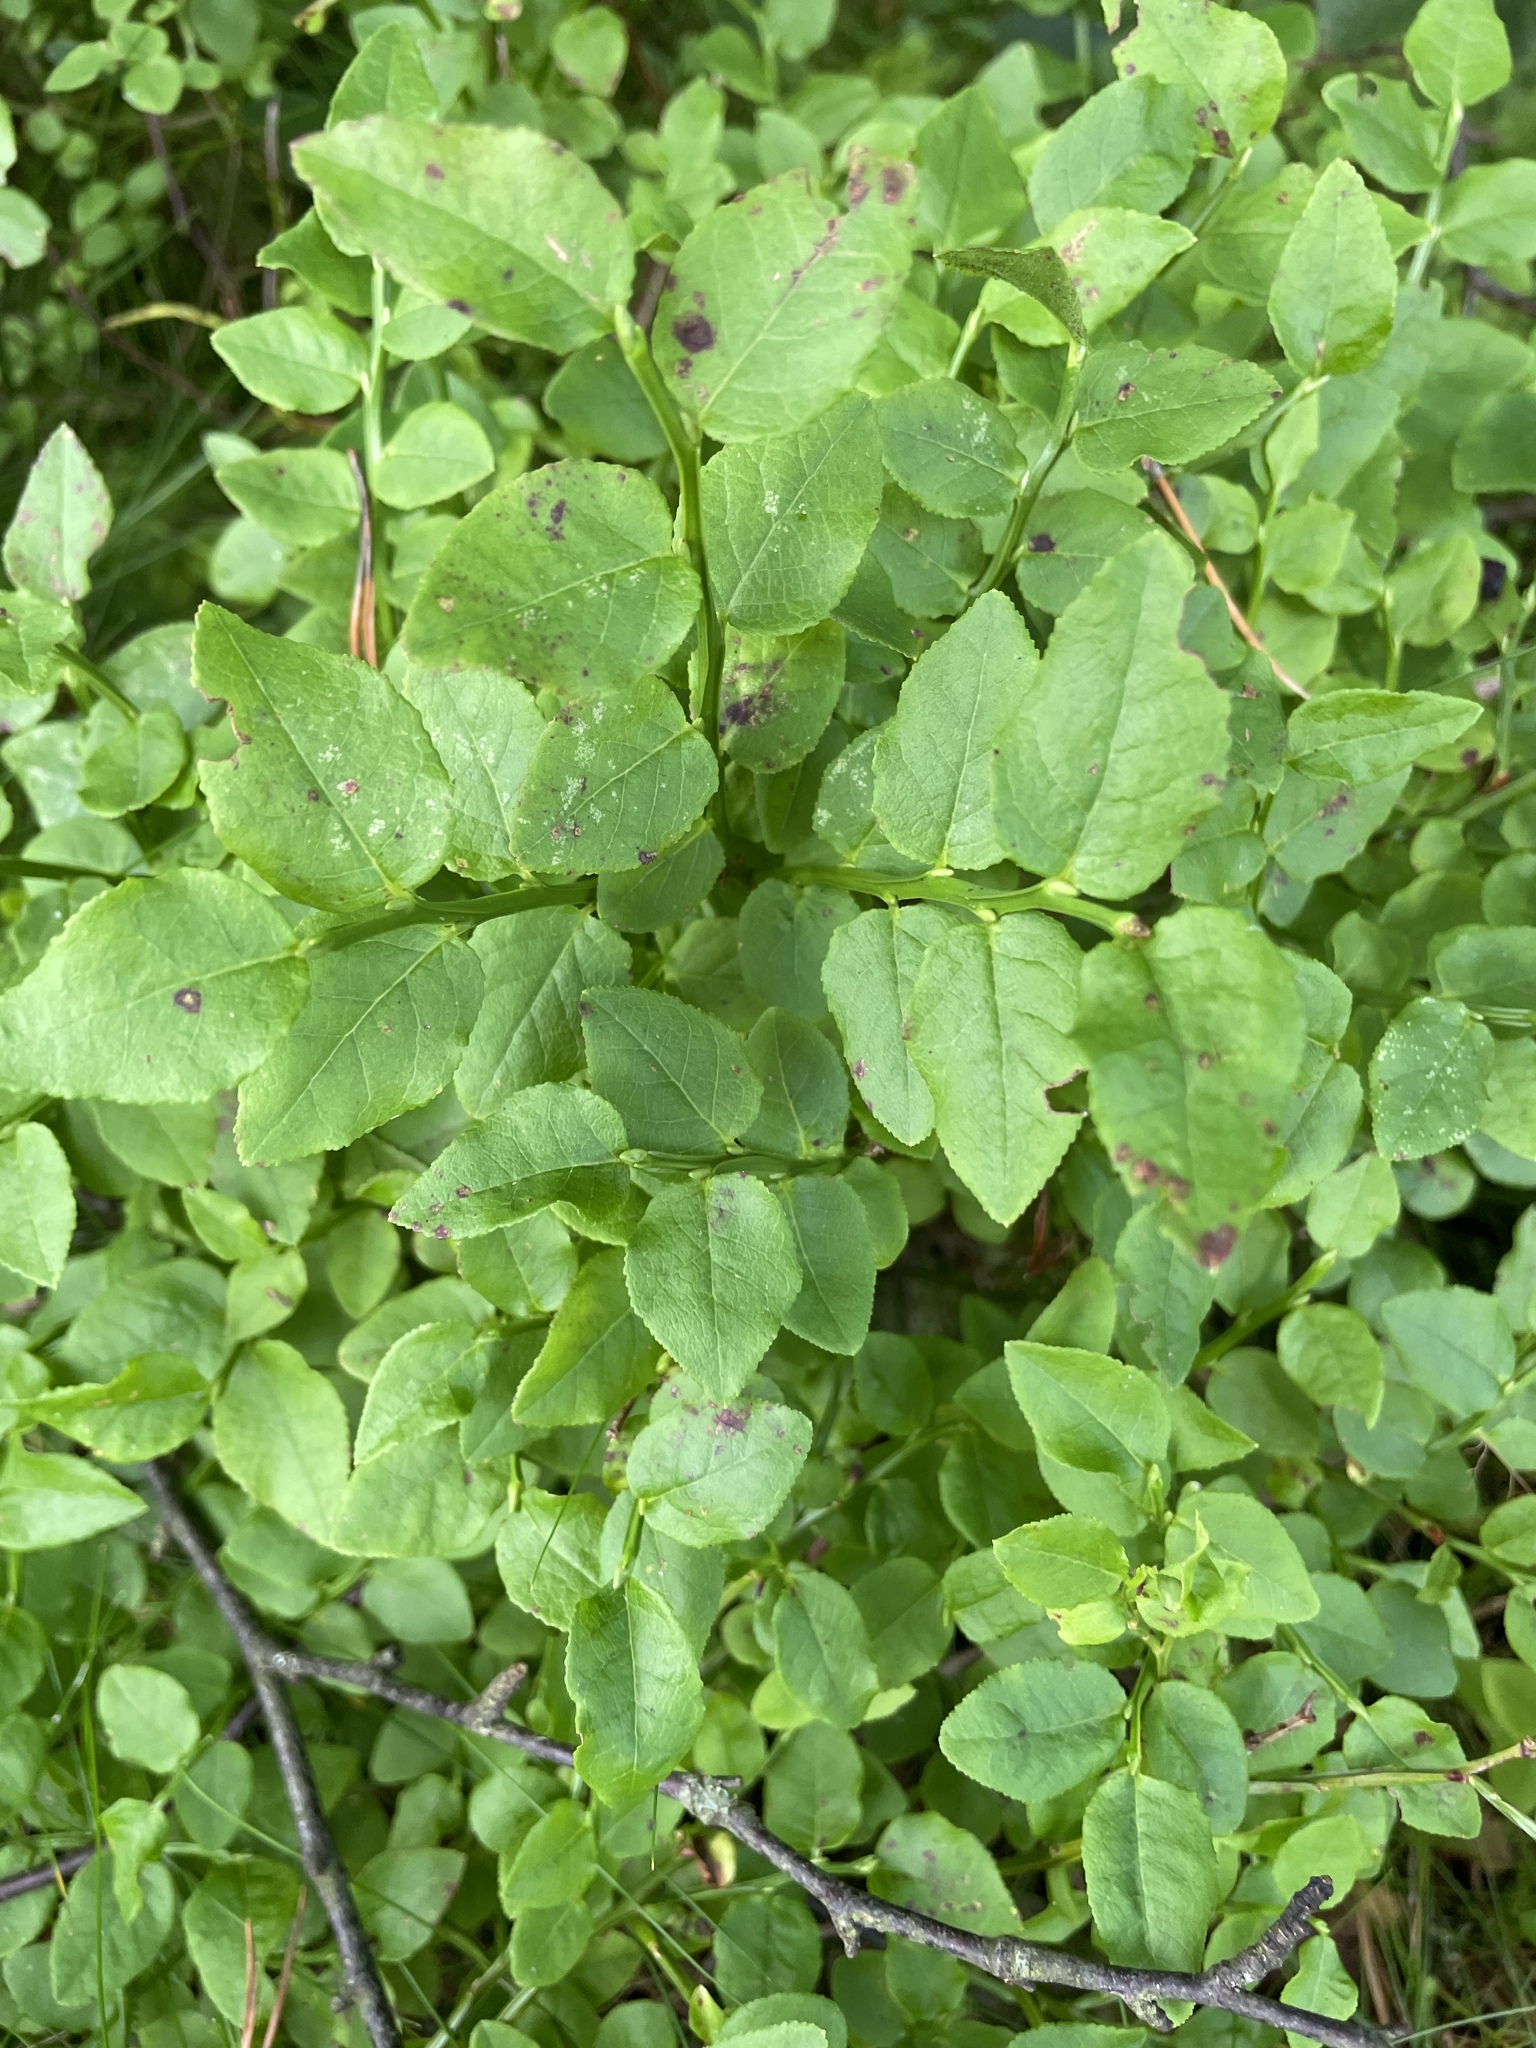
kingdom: Plantae
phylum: Tracheophyta
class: Magnoliopsida
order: Ericales
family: Ericaceae
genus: Vaccinium
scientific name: Vaccinium myrtillus
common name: Bilberry
